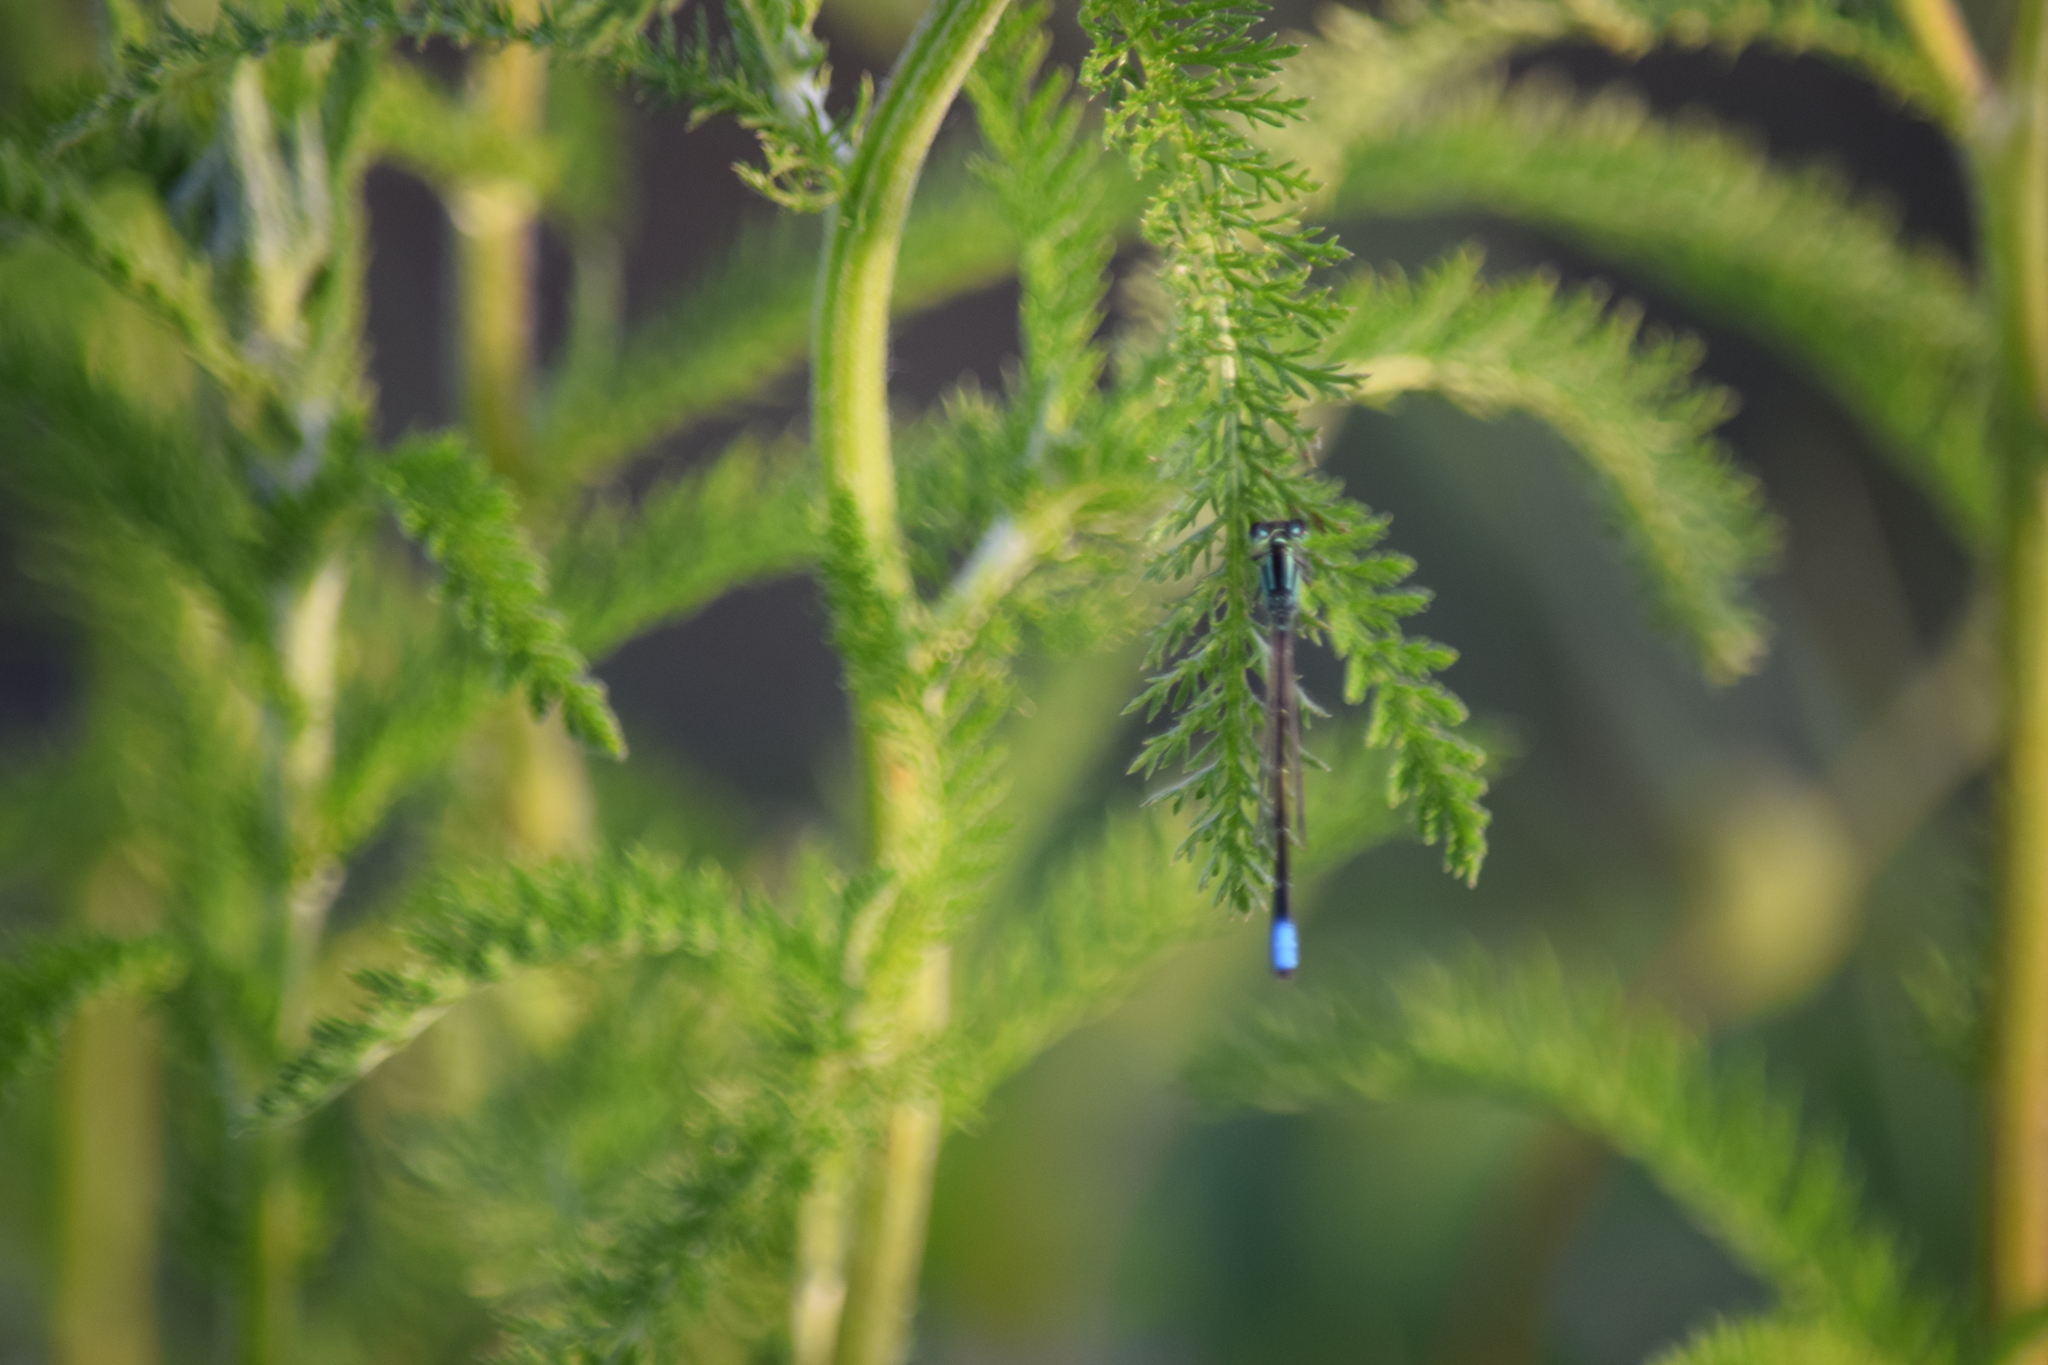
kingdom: Animalia
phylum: Arthropoda
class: Insecta
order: Odonata
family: Coenagrionidae
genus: Ischnura
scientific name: Ischnura verticalis
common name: Eastern forktail
